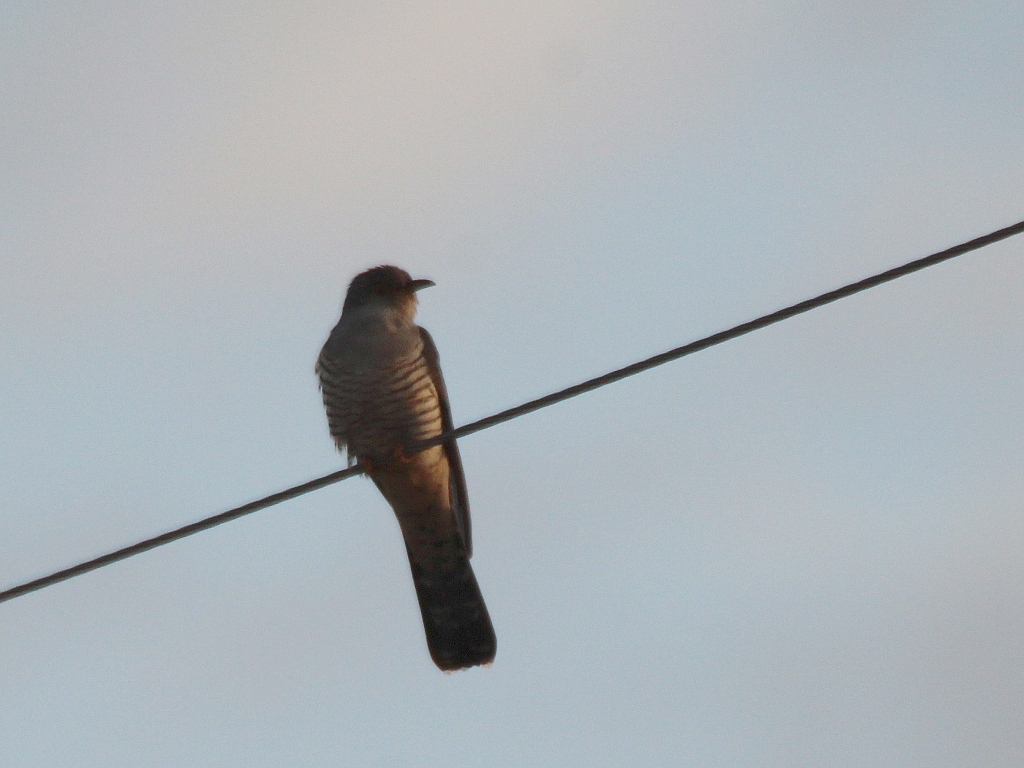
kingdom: Animalia
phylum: Chordata
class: Aves
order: Cuculiformes
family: Cuculidae
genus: Cuculus
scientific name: Cuculus canorus
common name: Common cuckoo
